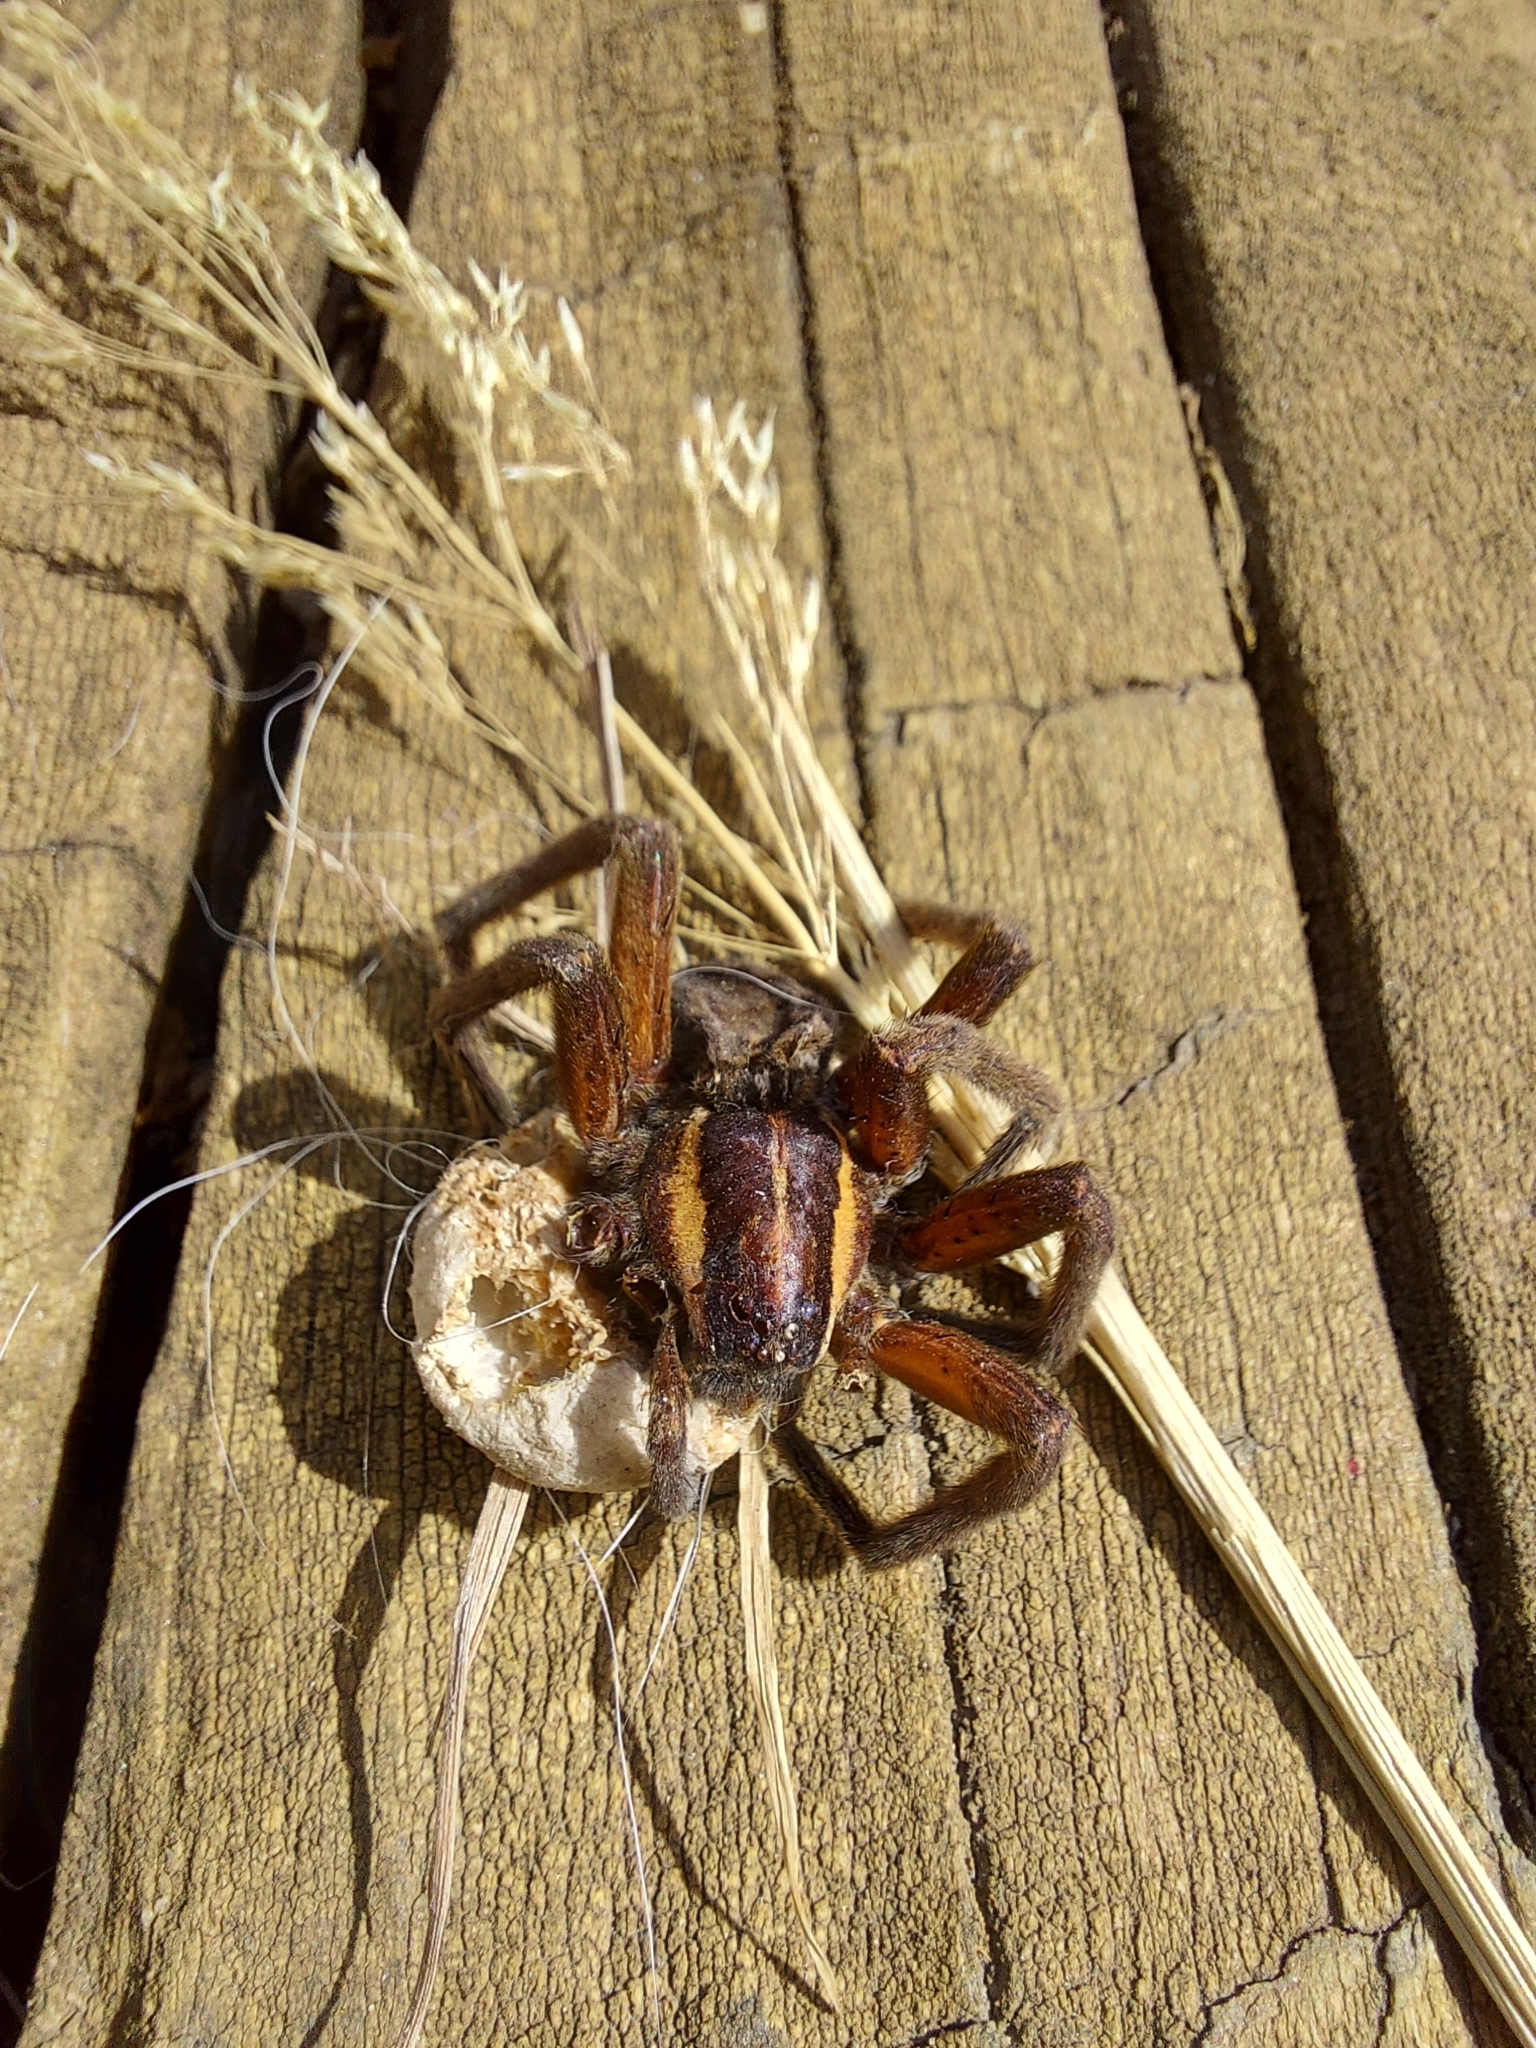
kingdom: Animalia
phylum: Arthropoda
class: Arachnida
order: Araneae
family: Pisauridae
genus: Dolomedes
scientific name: Dolomedes minor
